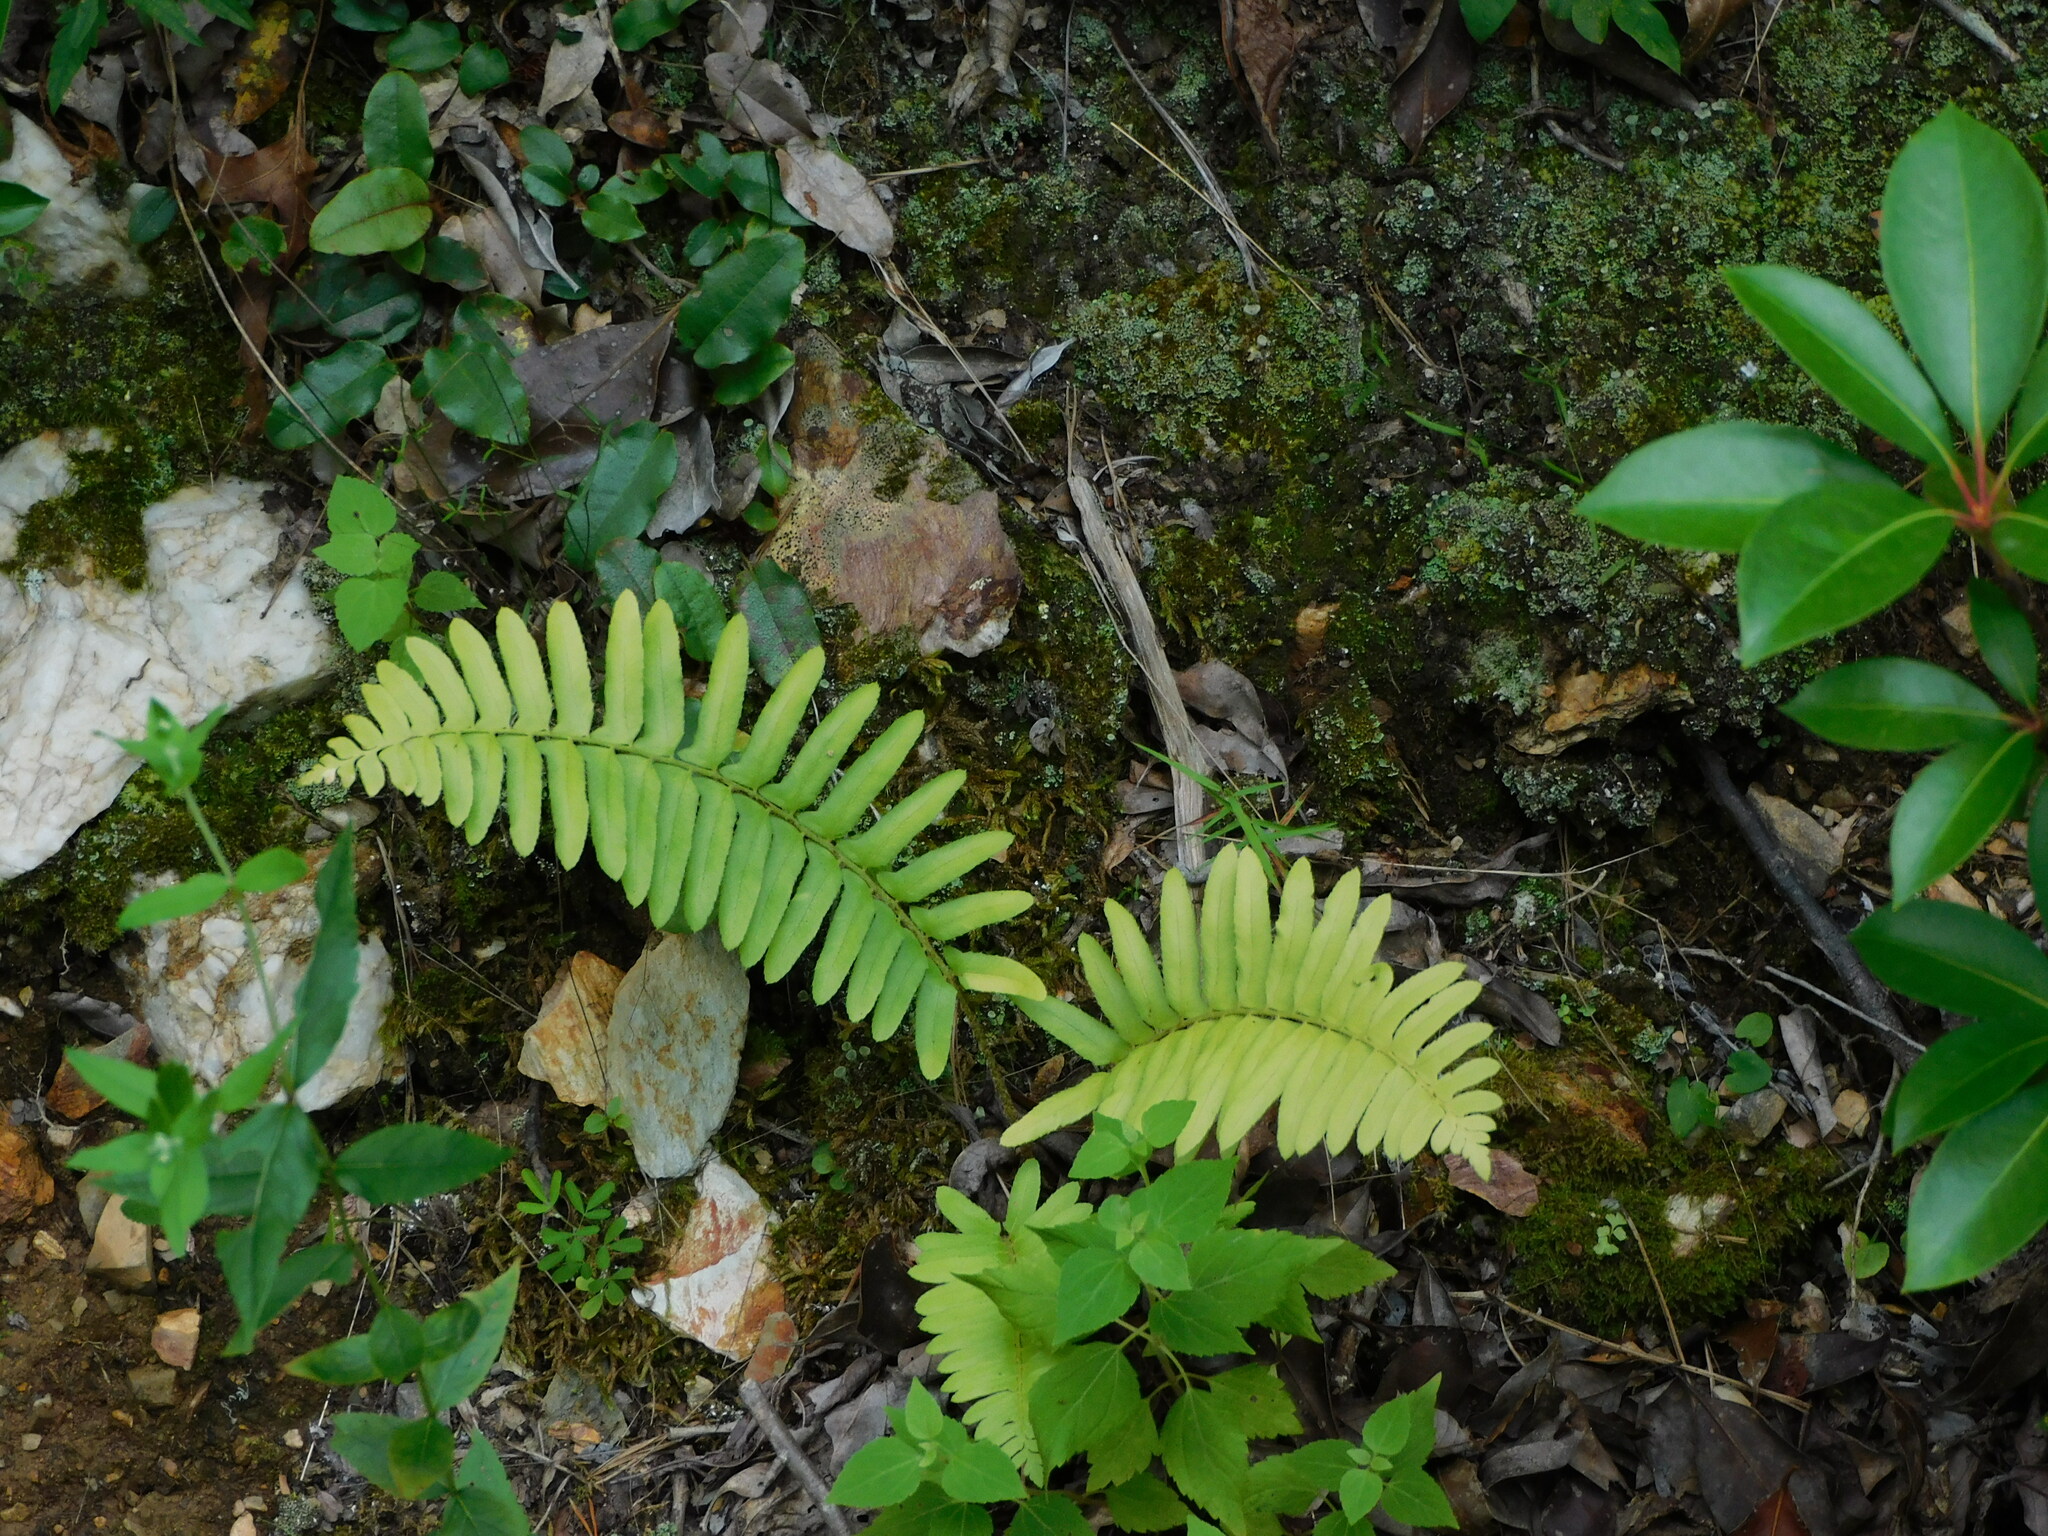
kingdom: Plantae
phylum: Tracheophyta
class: Polypodiopsida
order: Polypodiales
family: Dryopteridaceae
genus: Polystichum
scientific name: Polystichum acrostichoides
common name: Christmas fern
